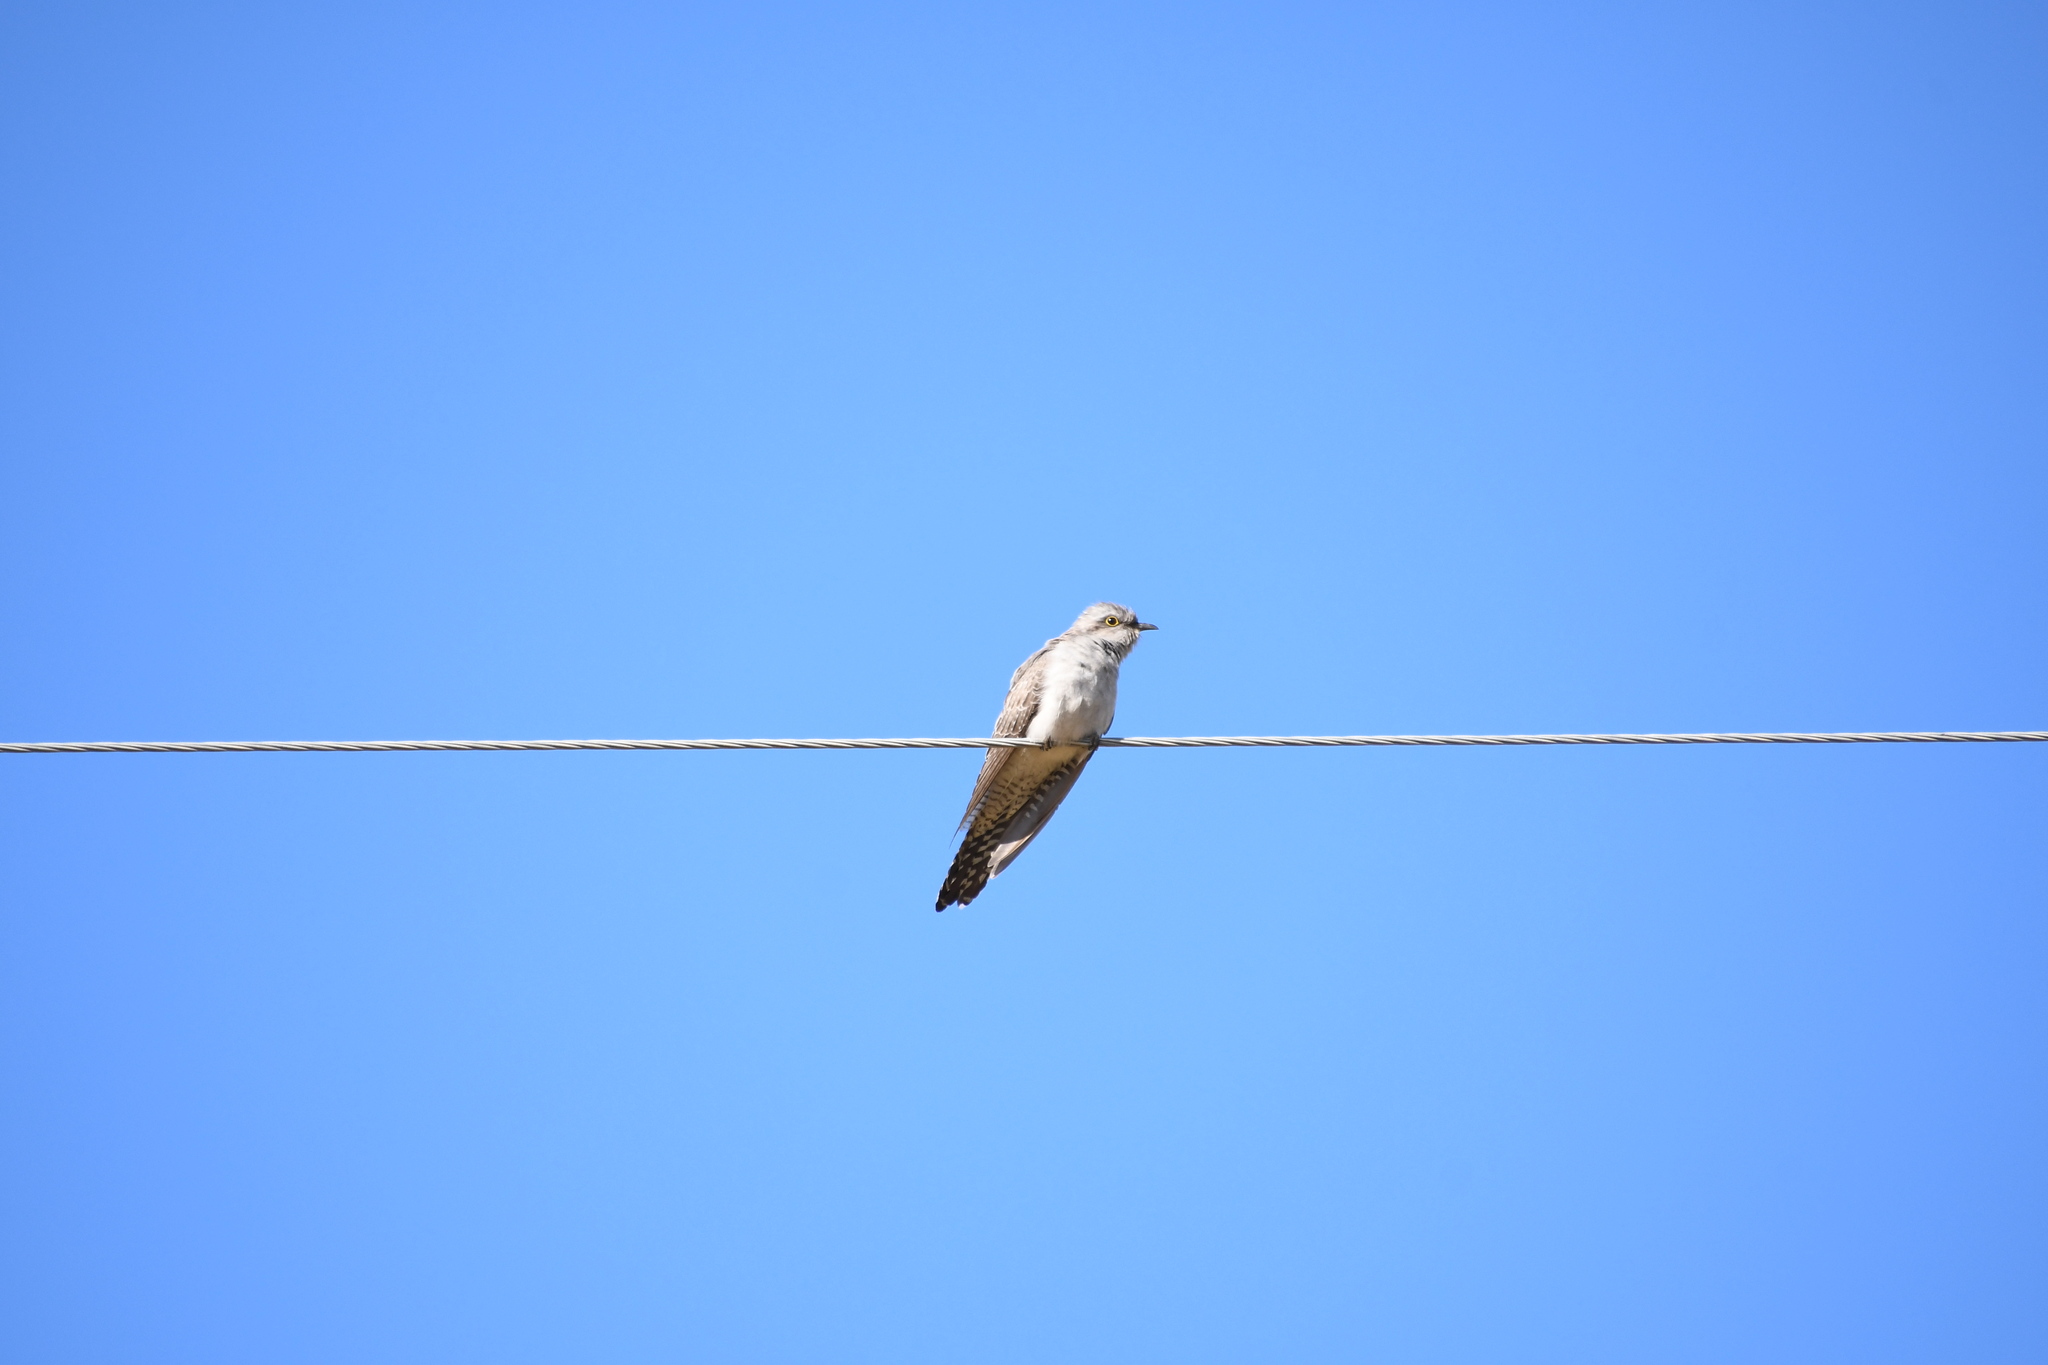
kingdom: Animalia
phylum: Chordata
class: Aves
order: Cuculiformes
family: Cuculidae
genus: Cuculus
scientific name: Cuculus pallidus
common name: Pallid cuckoo
